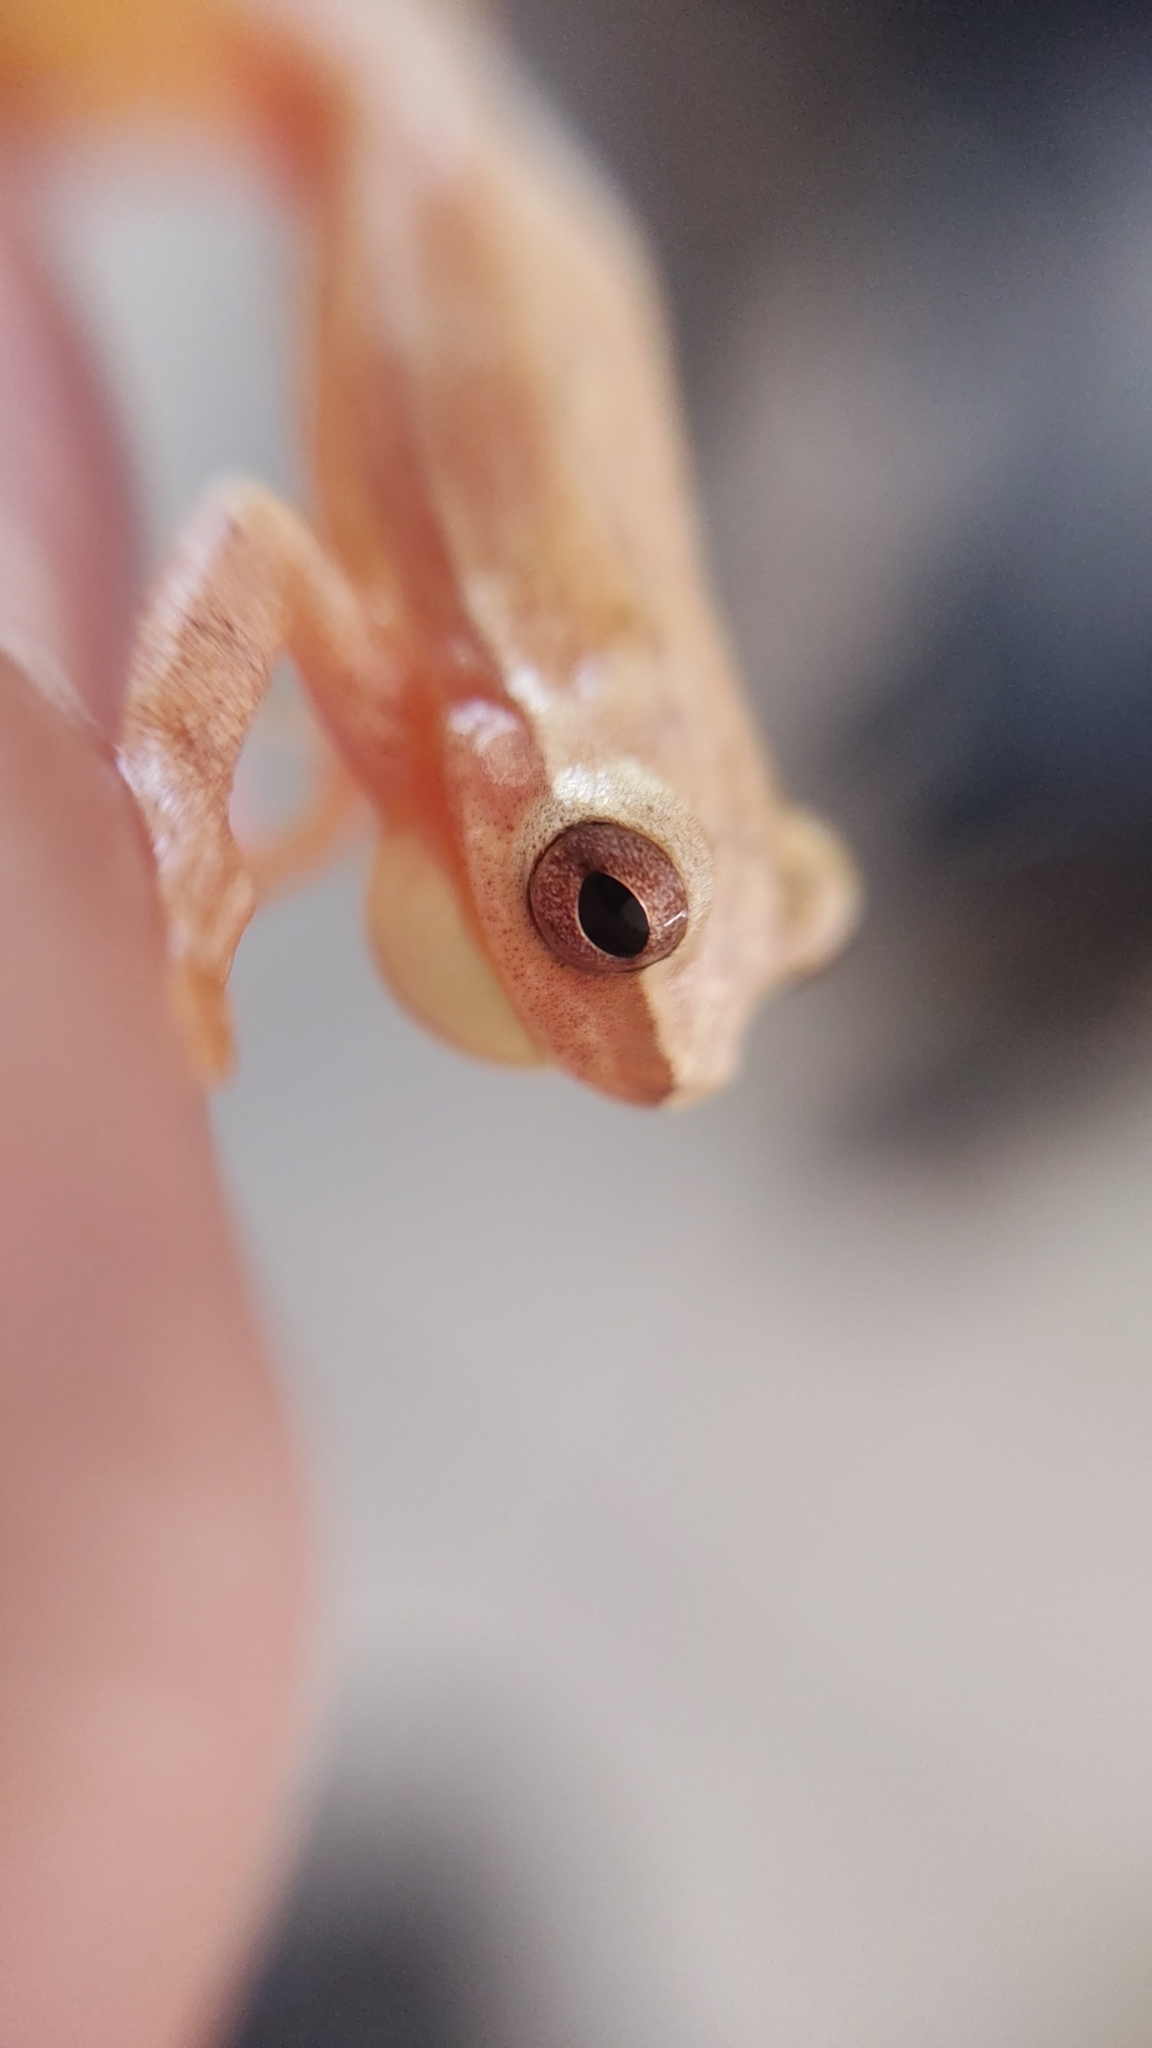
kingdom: Animalia
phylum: Chordata
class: Amphibia
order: Anura
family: Hylidae
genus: Dendropsophus
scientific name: Dendropsophus microcephalus
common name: Small-headed treefrog
